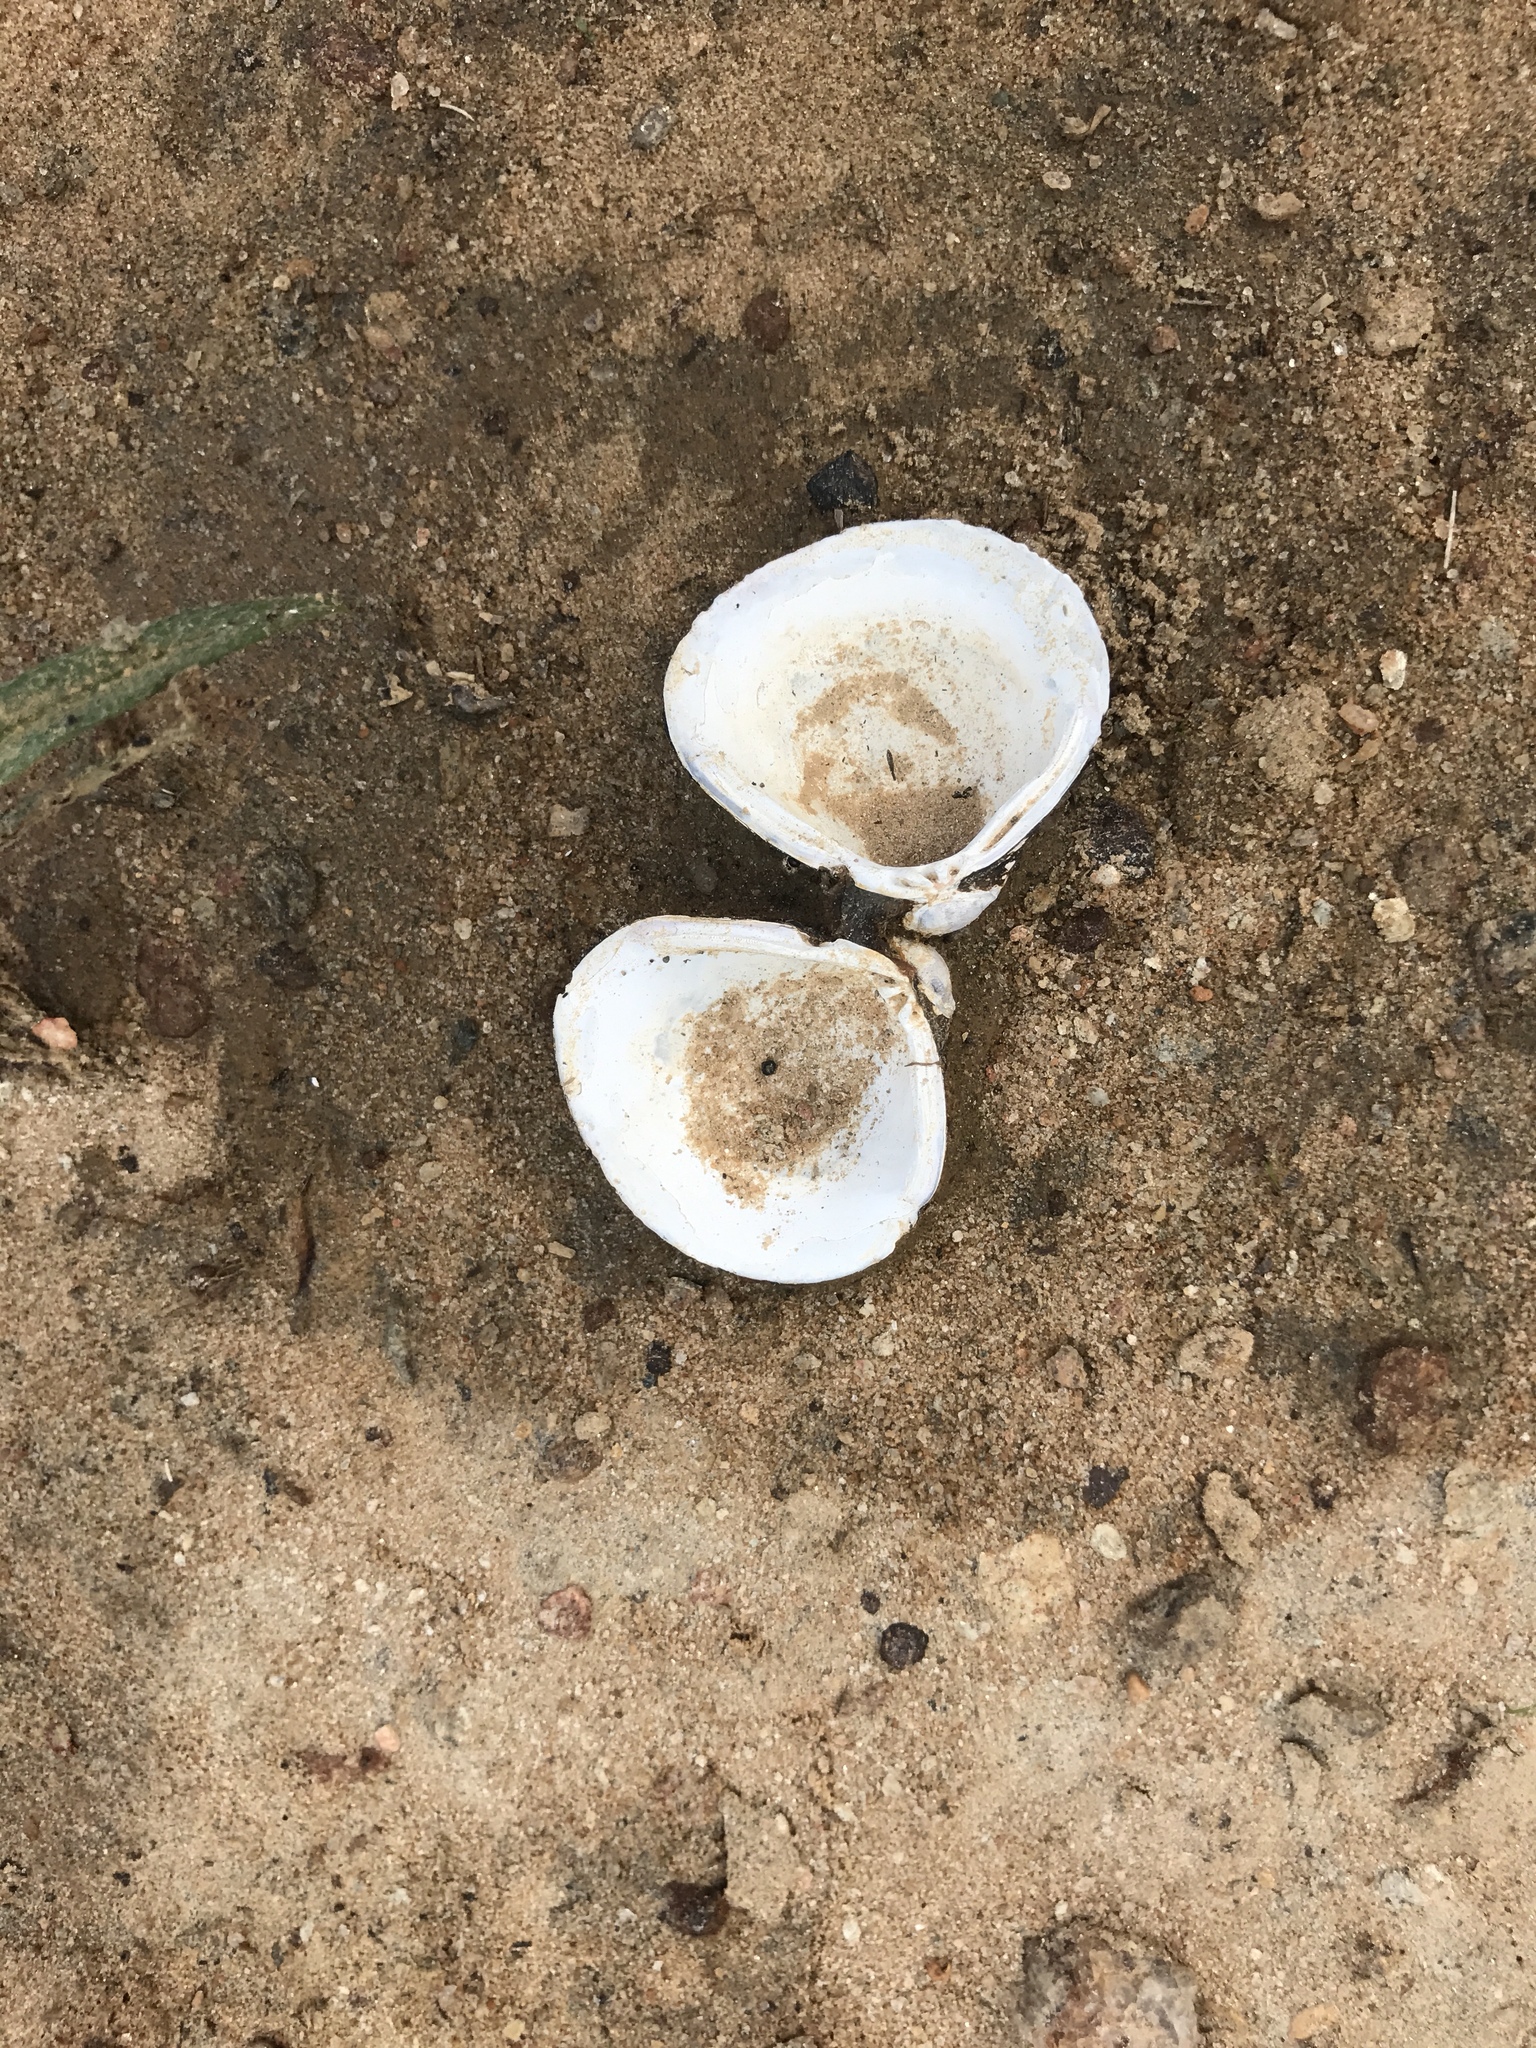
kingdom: Animalia
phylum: Mollusca
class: Bivalvia
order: Venerida
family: Cyrenidae
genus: Corbicula
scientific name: Corbicula fluminea
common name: Asian clam
